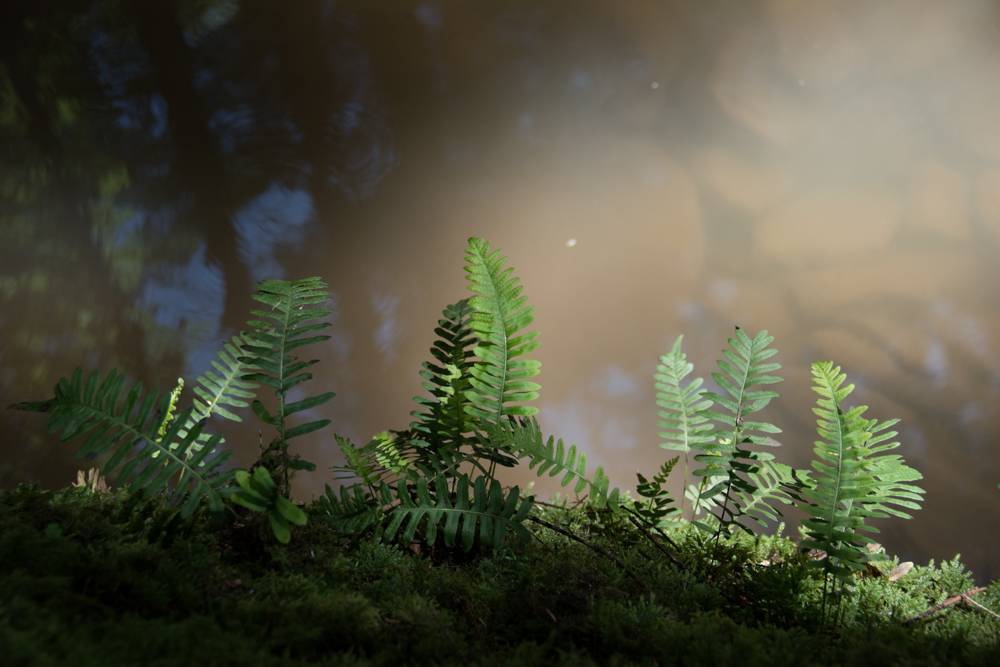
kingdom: Plantae
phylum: Tracheophyta
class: Polypodiopsida
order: Polypodiales
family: Polypodiaceae
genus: Polypodium
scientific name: Polypodium vulgare
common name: Common polypody
